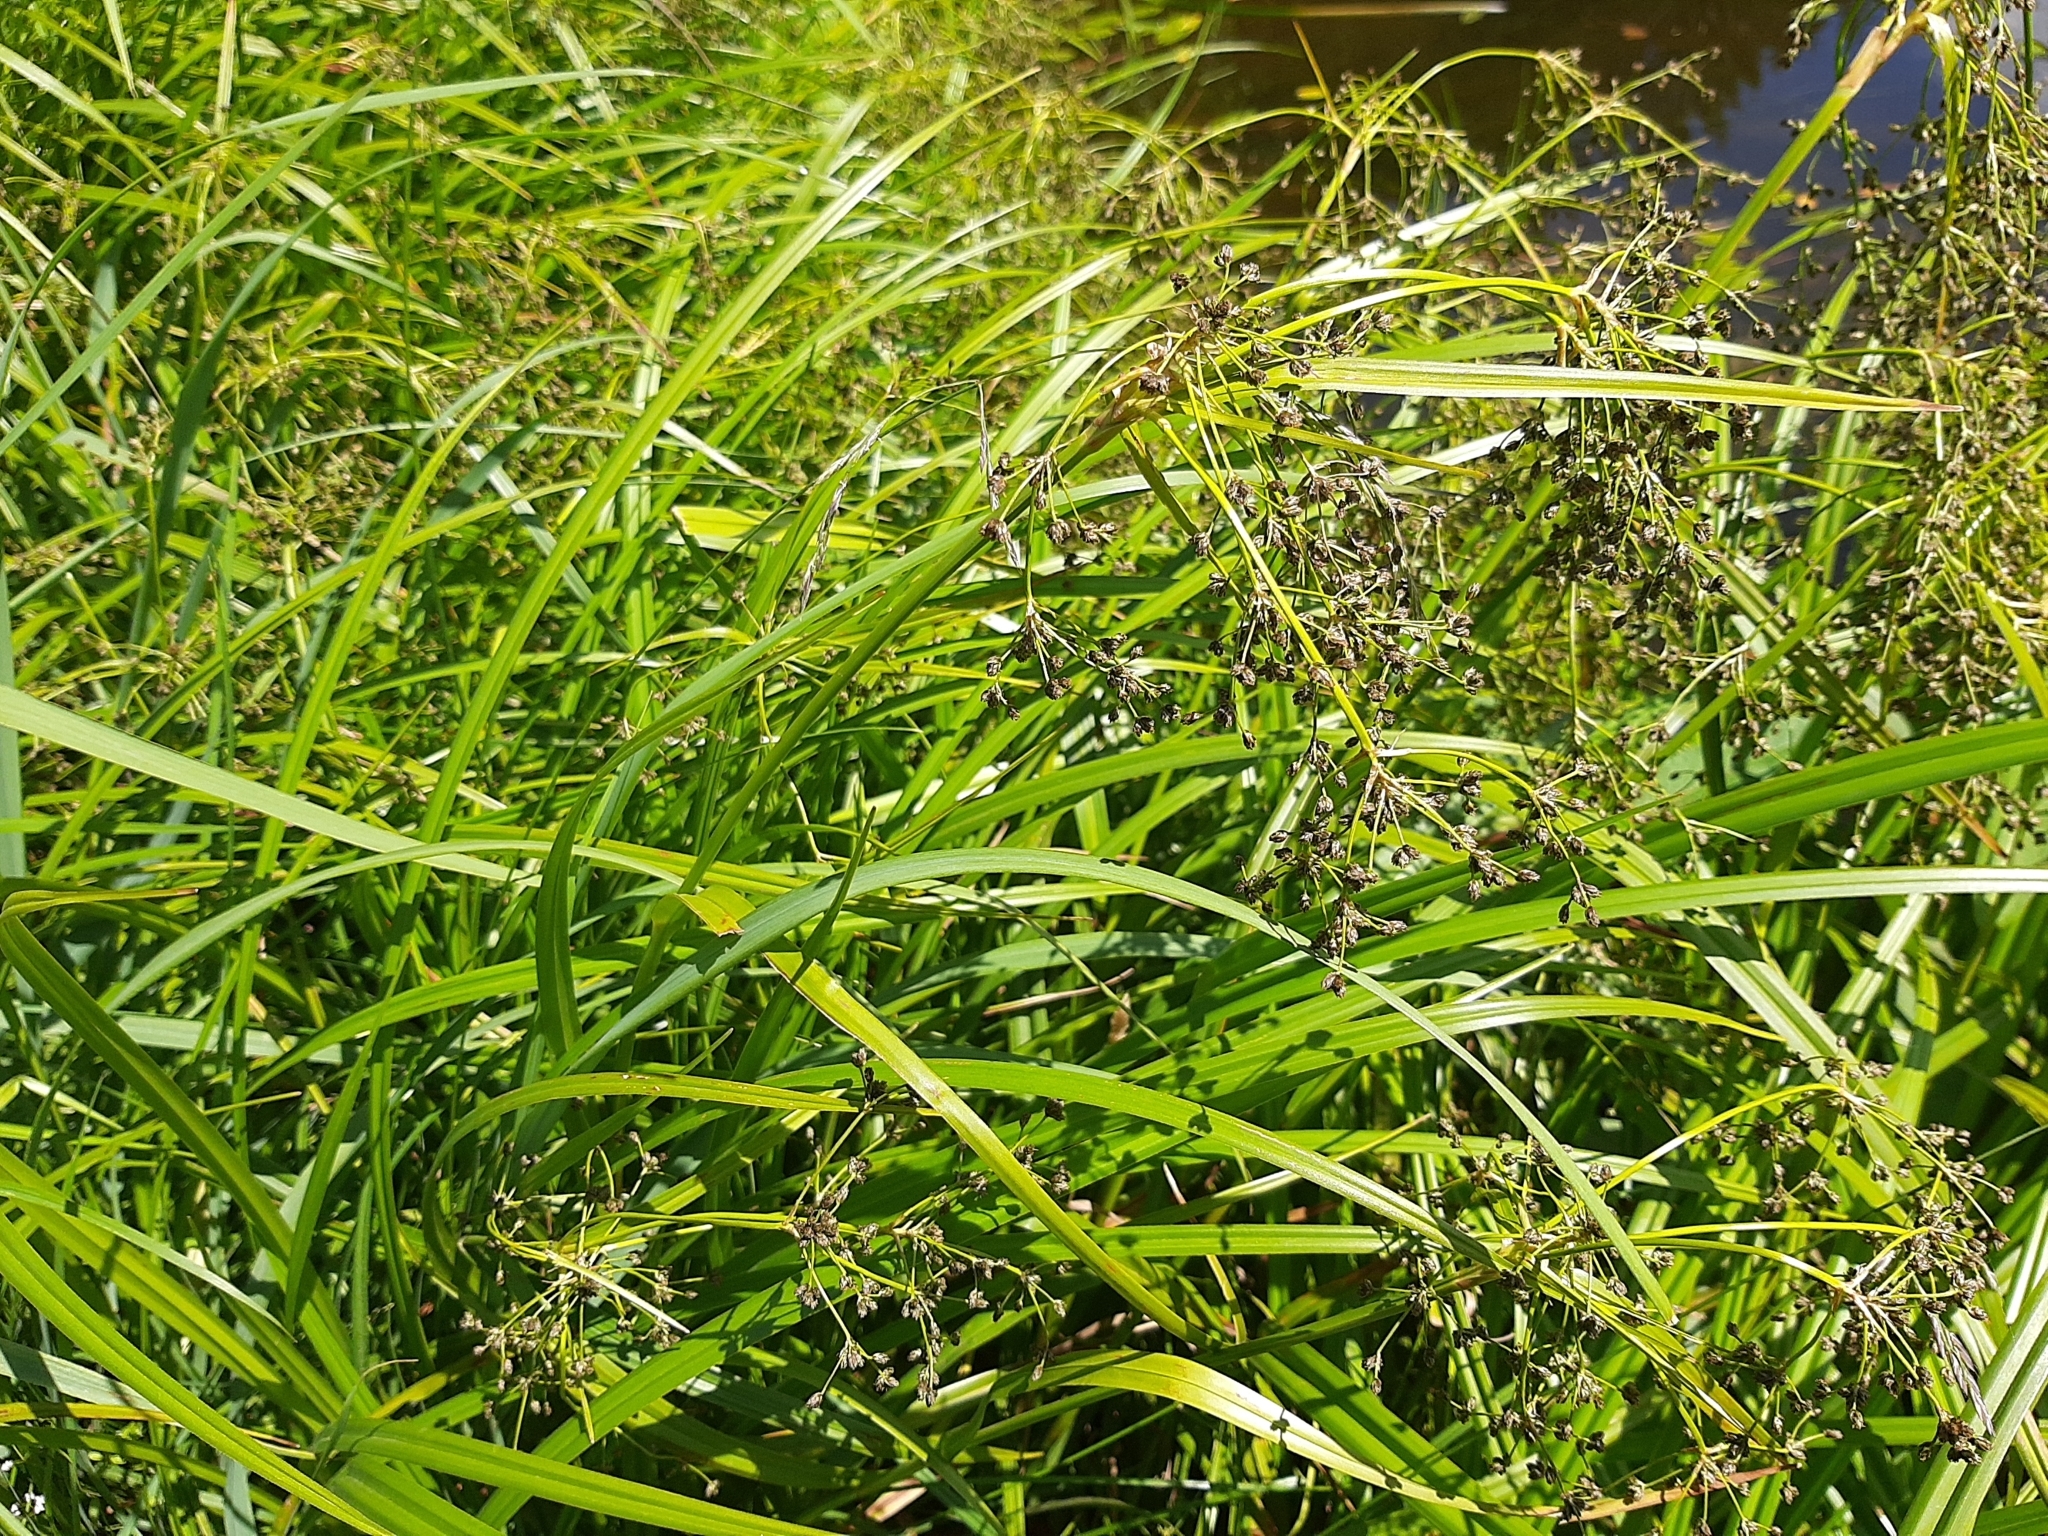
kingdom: Plantae
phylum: Tracheophyta
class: Liliopsida
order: Poales
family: Cyperaceae
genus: Scirpus
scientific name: Scirpus sylvaticus
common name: Wood club-rush
